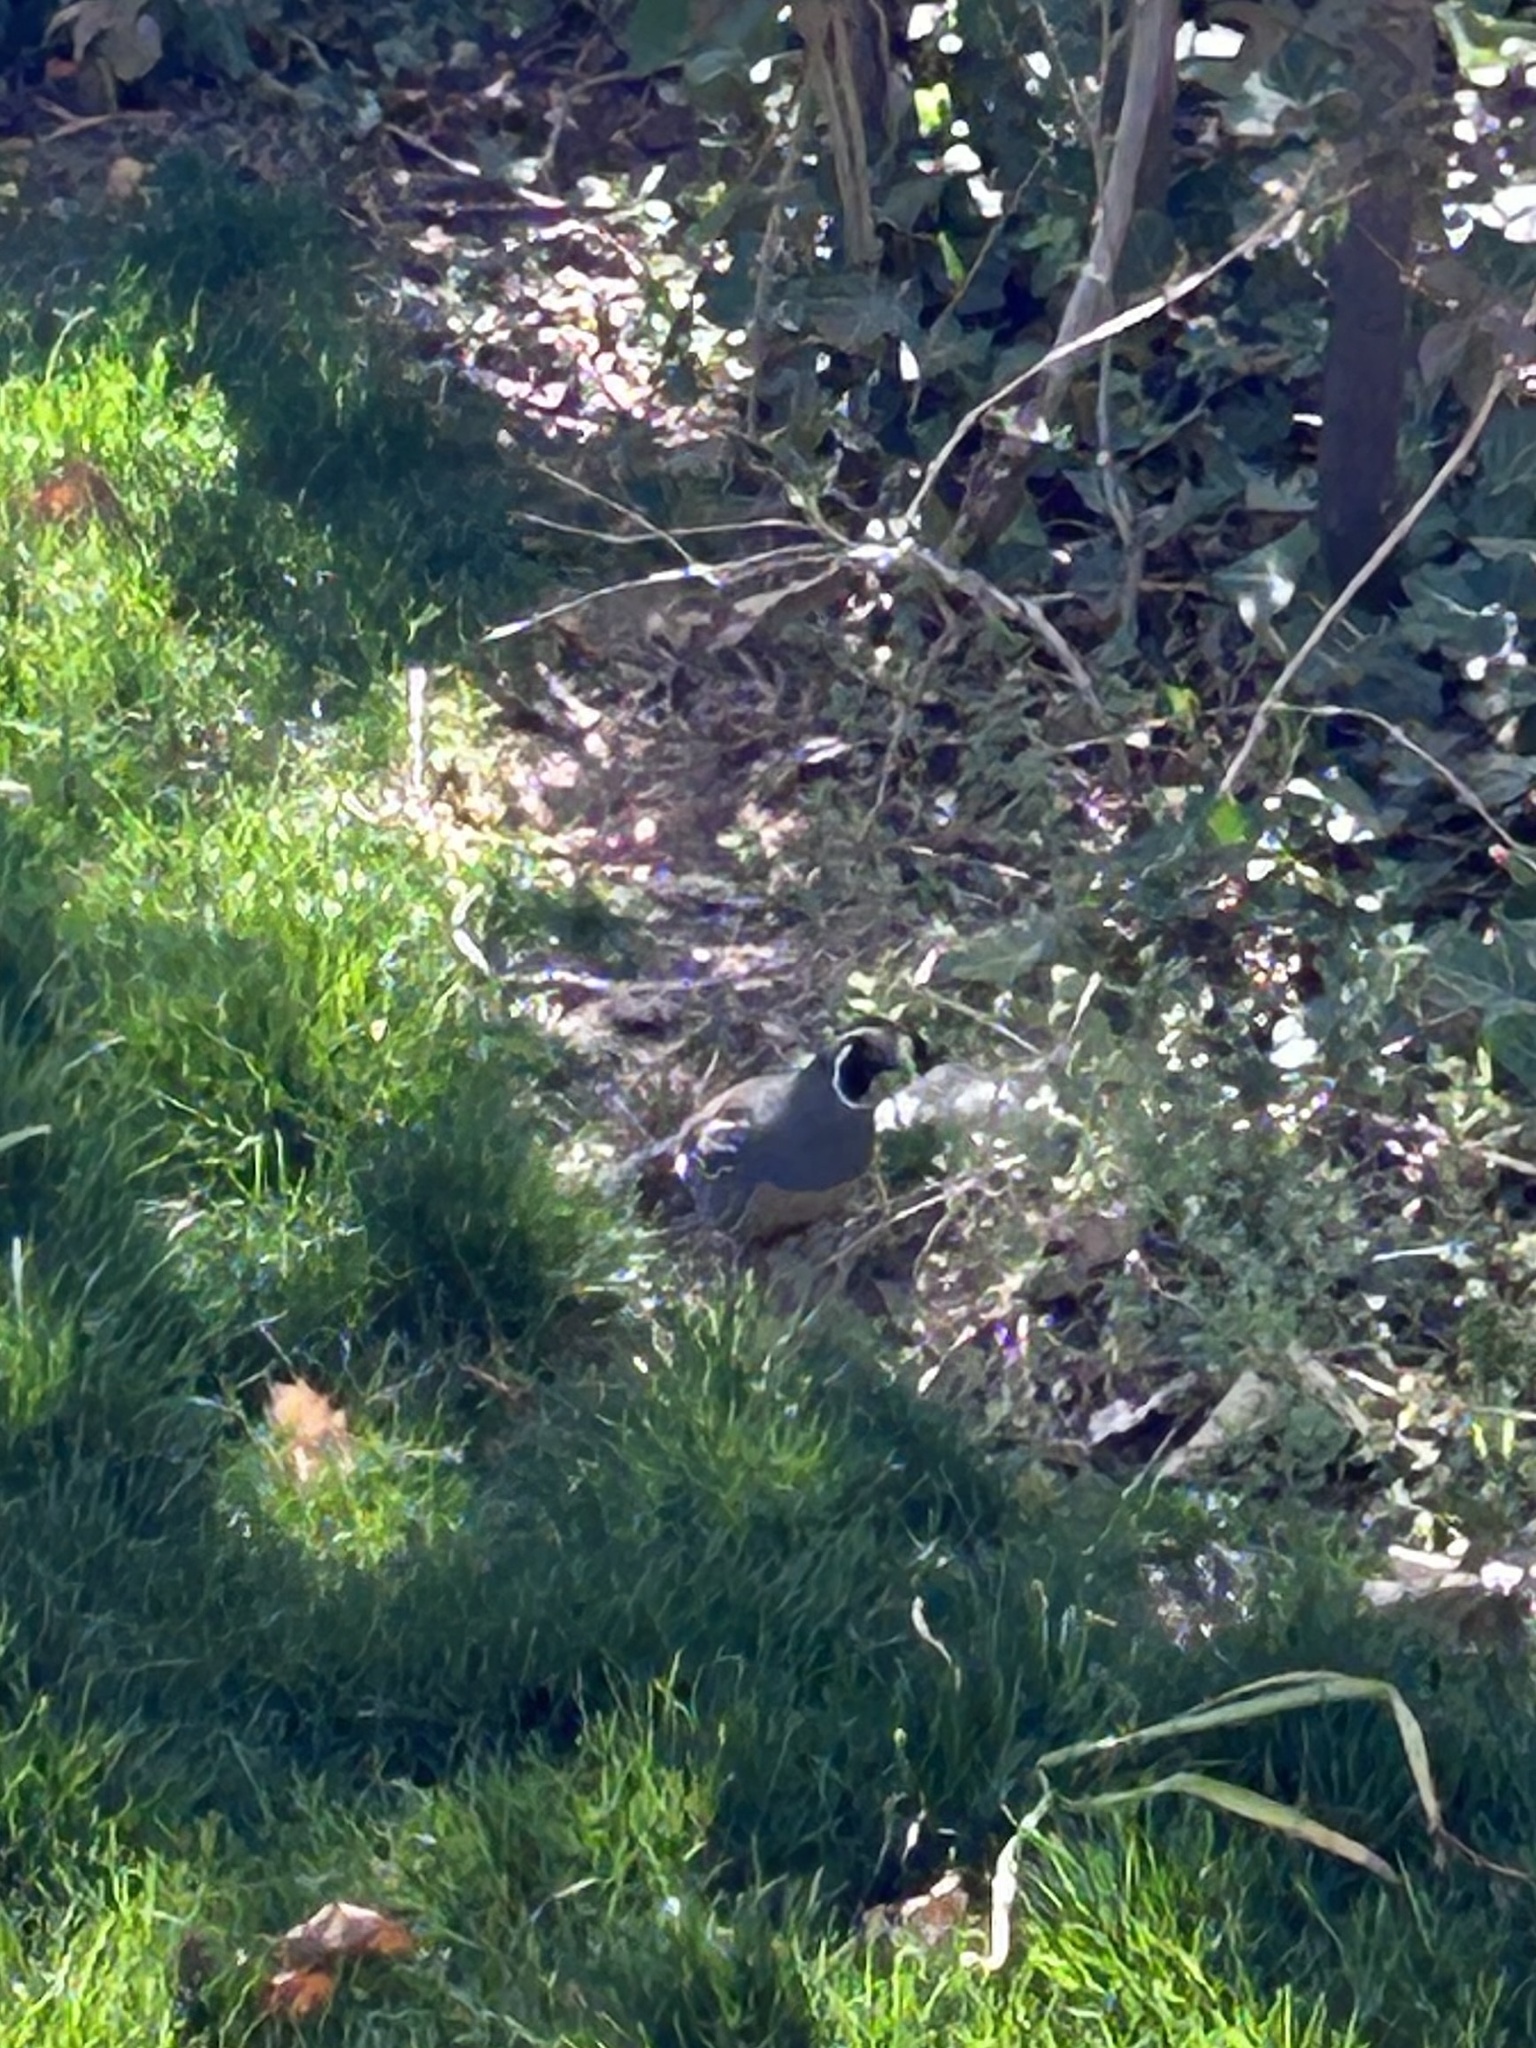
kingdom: Animalia
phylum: Chordata
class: Aves
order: Galliformes
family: Odontophoridae
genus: Callipepla
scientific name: Callipepla californica
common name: California quail
